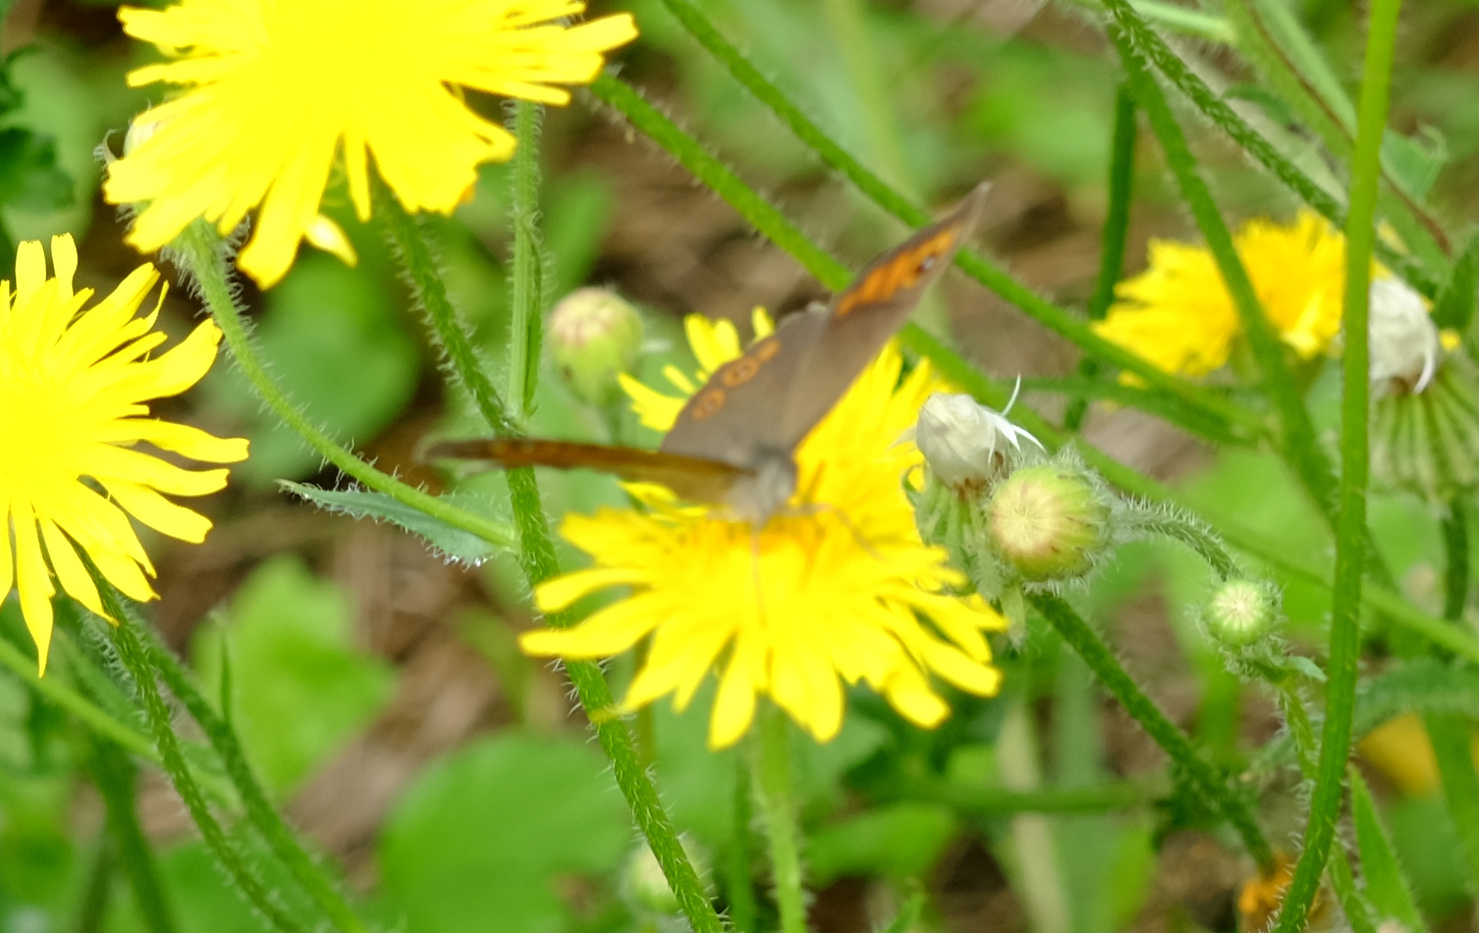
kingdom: Animalia
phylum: Arthropoda
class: Insecta
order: Lepidoptera
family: Nymphalidae
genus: Pararge
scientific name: Pararge Lasiommata maera
